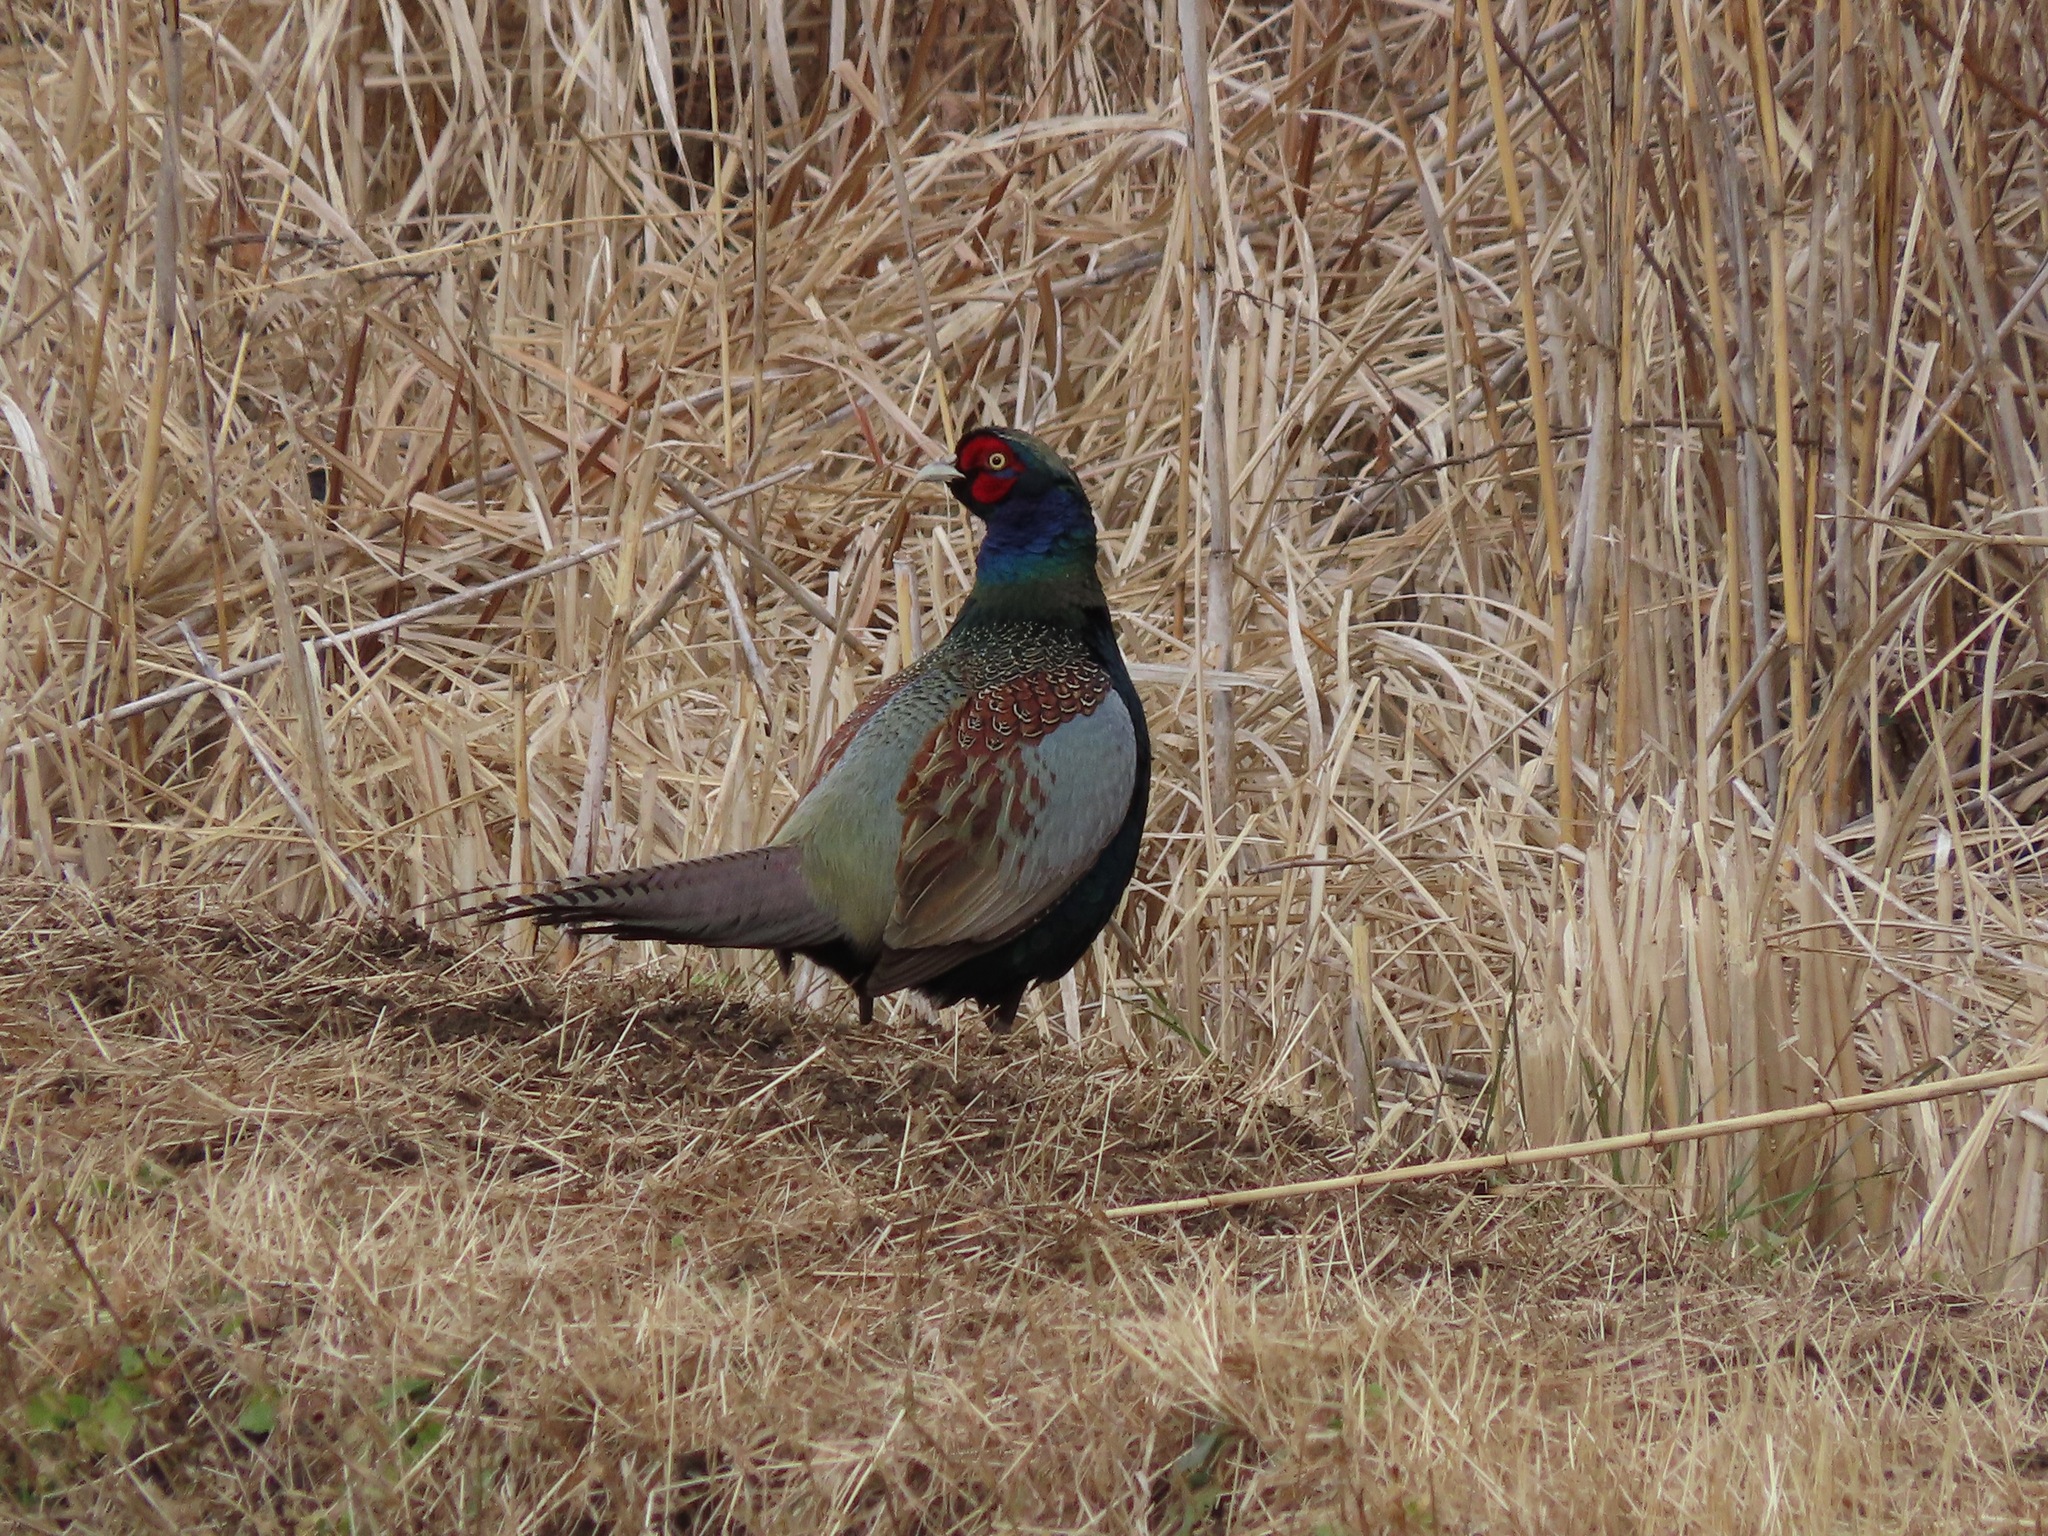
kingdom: Animalia
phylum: Chordata
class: Aves
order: Galliformes
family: Phasianidae
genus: Phasianus
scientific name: Phasianus versicolor
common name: Green pheasant
